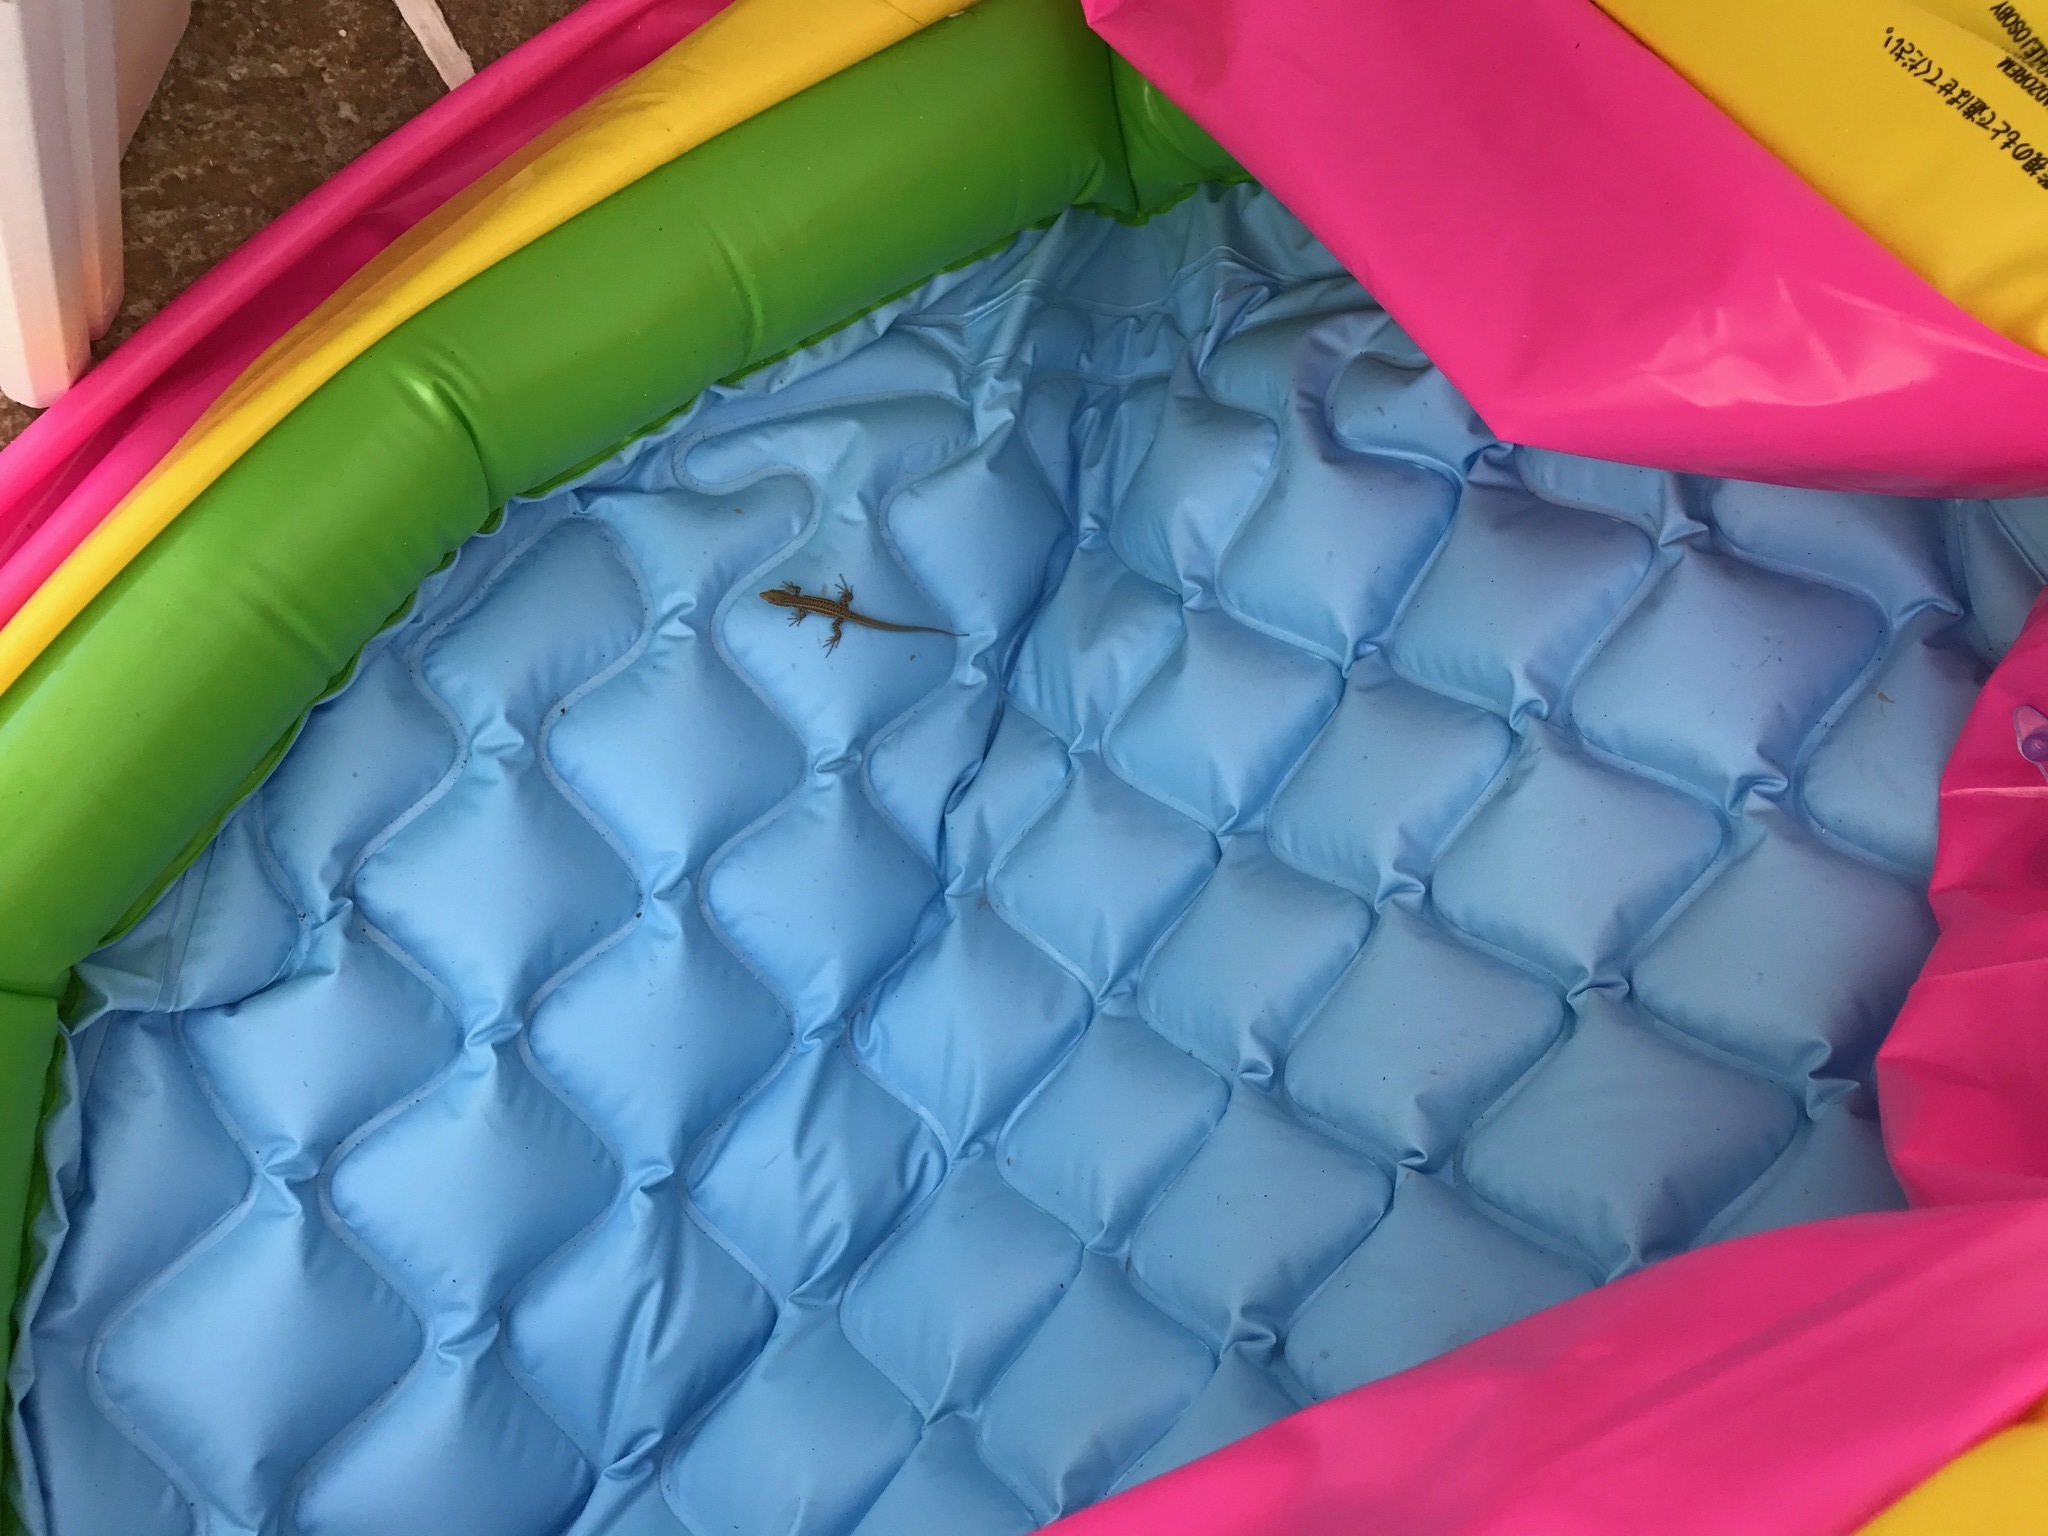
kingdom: Animalia
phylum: Chordata
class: Squamata
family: Lacertidae
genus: Podarcis
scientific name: Podarcis erhardii
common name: Erhard's wall lizard
